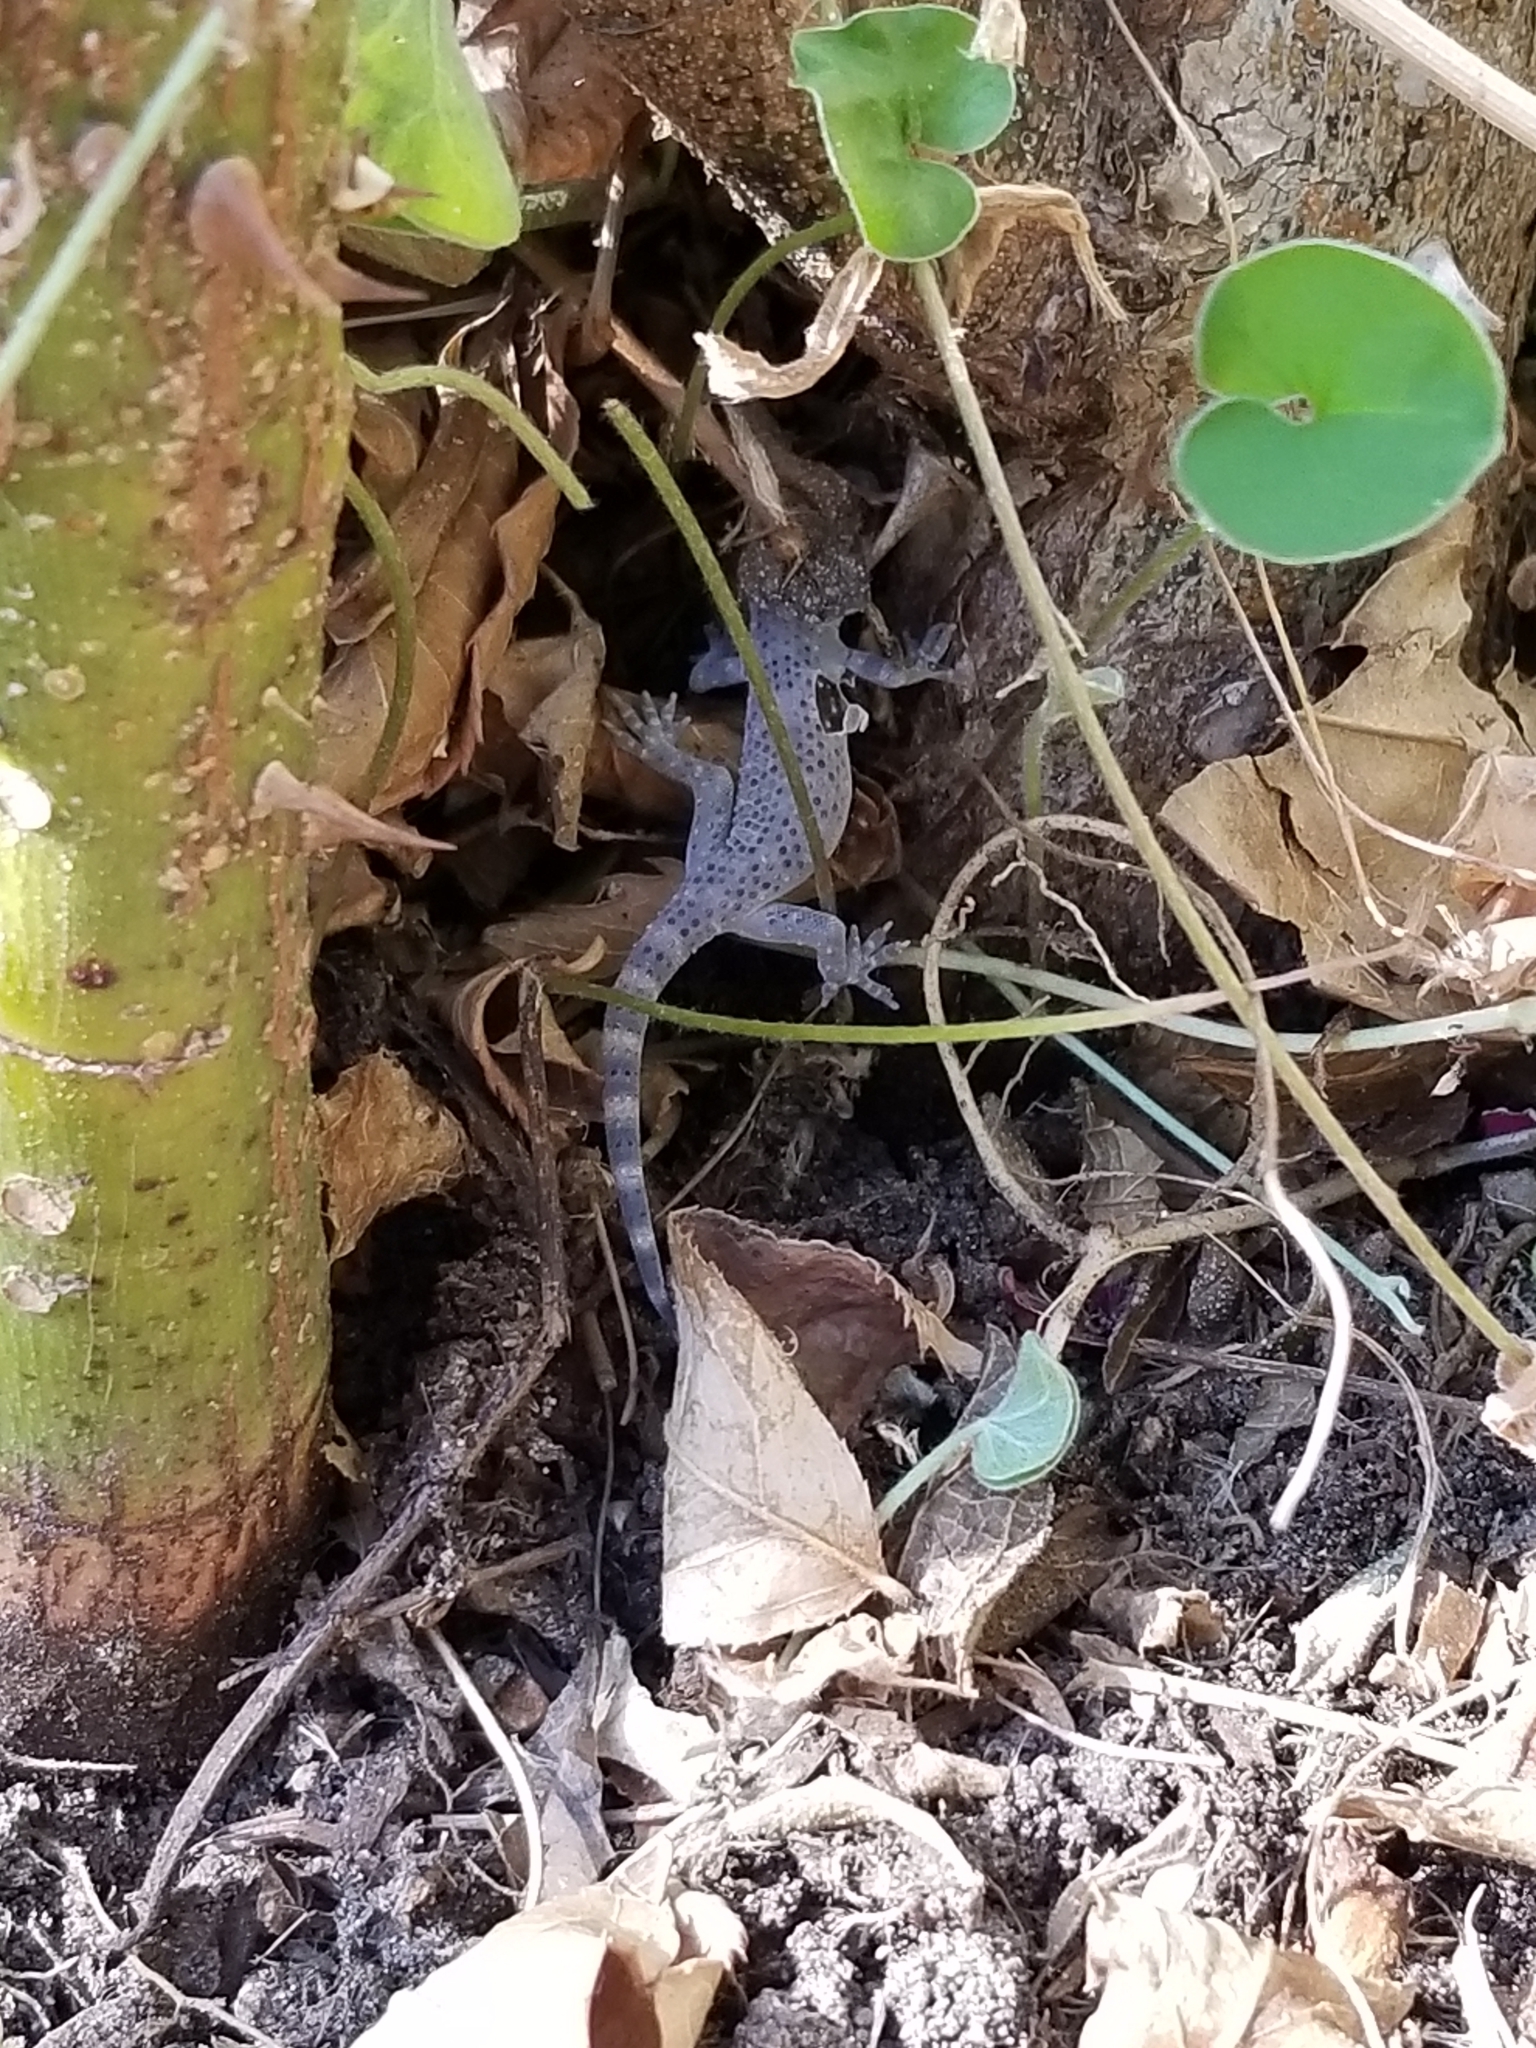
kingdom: Animalia
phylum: Chordata
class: Squamata
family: Gekkonidae
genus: Hemidactylus
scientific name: Hemidactylus turcicus
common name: Turkish gecko
